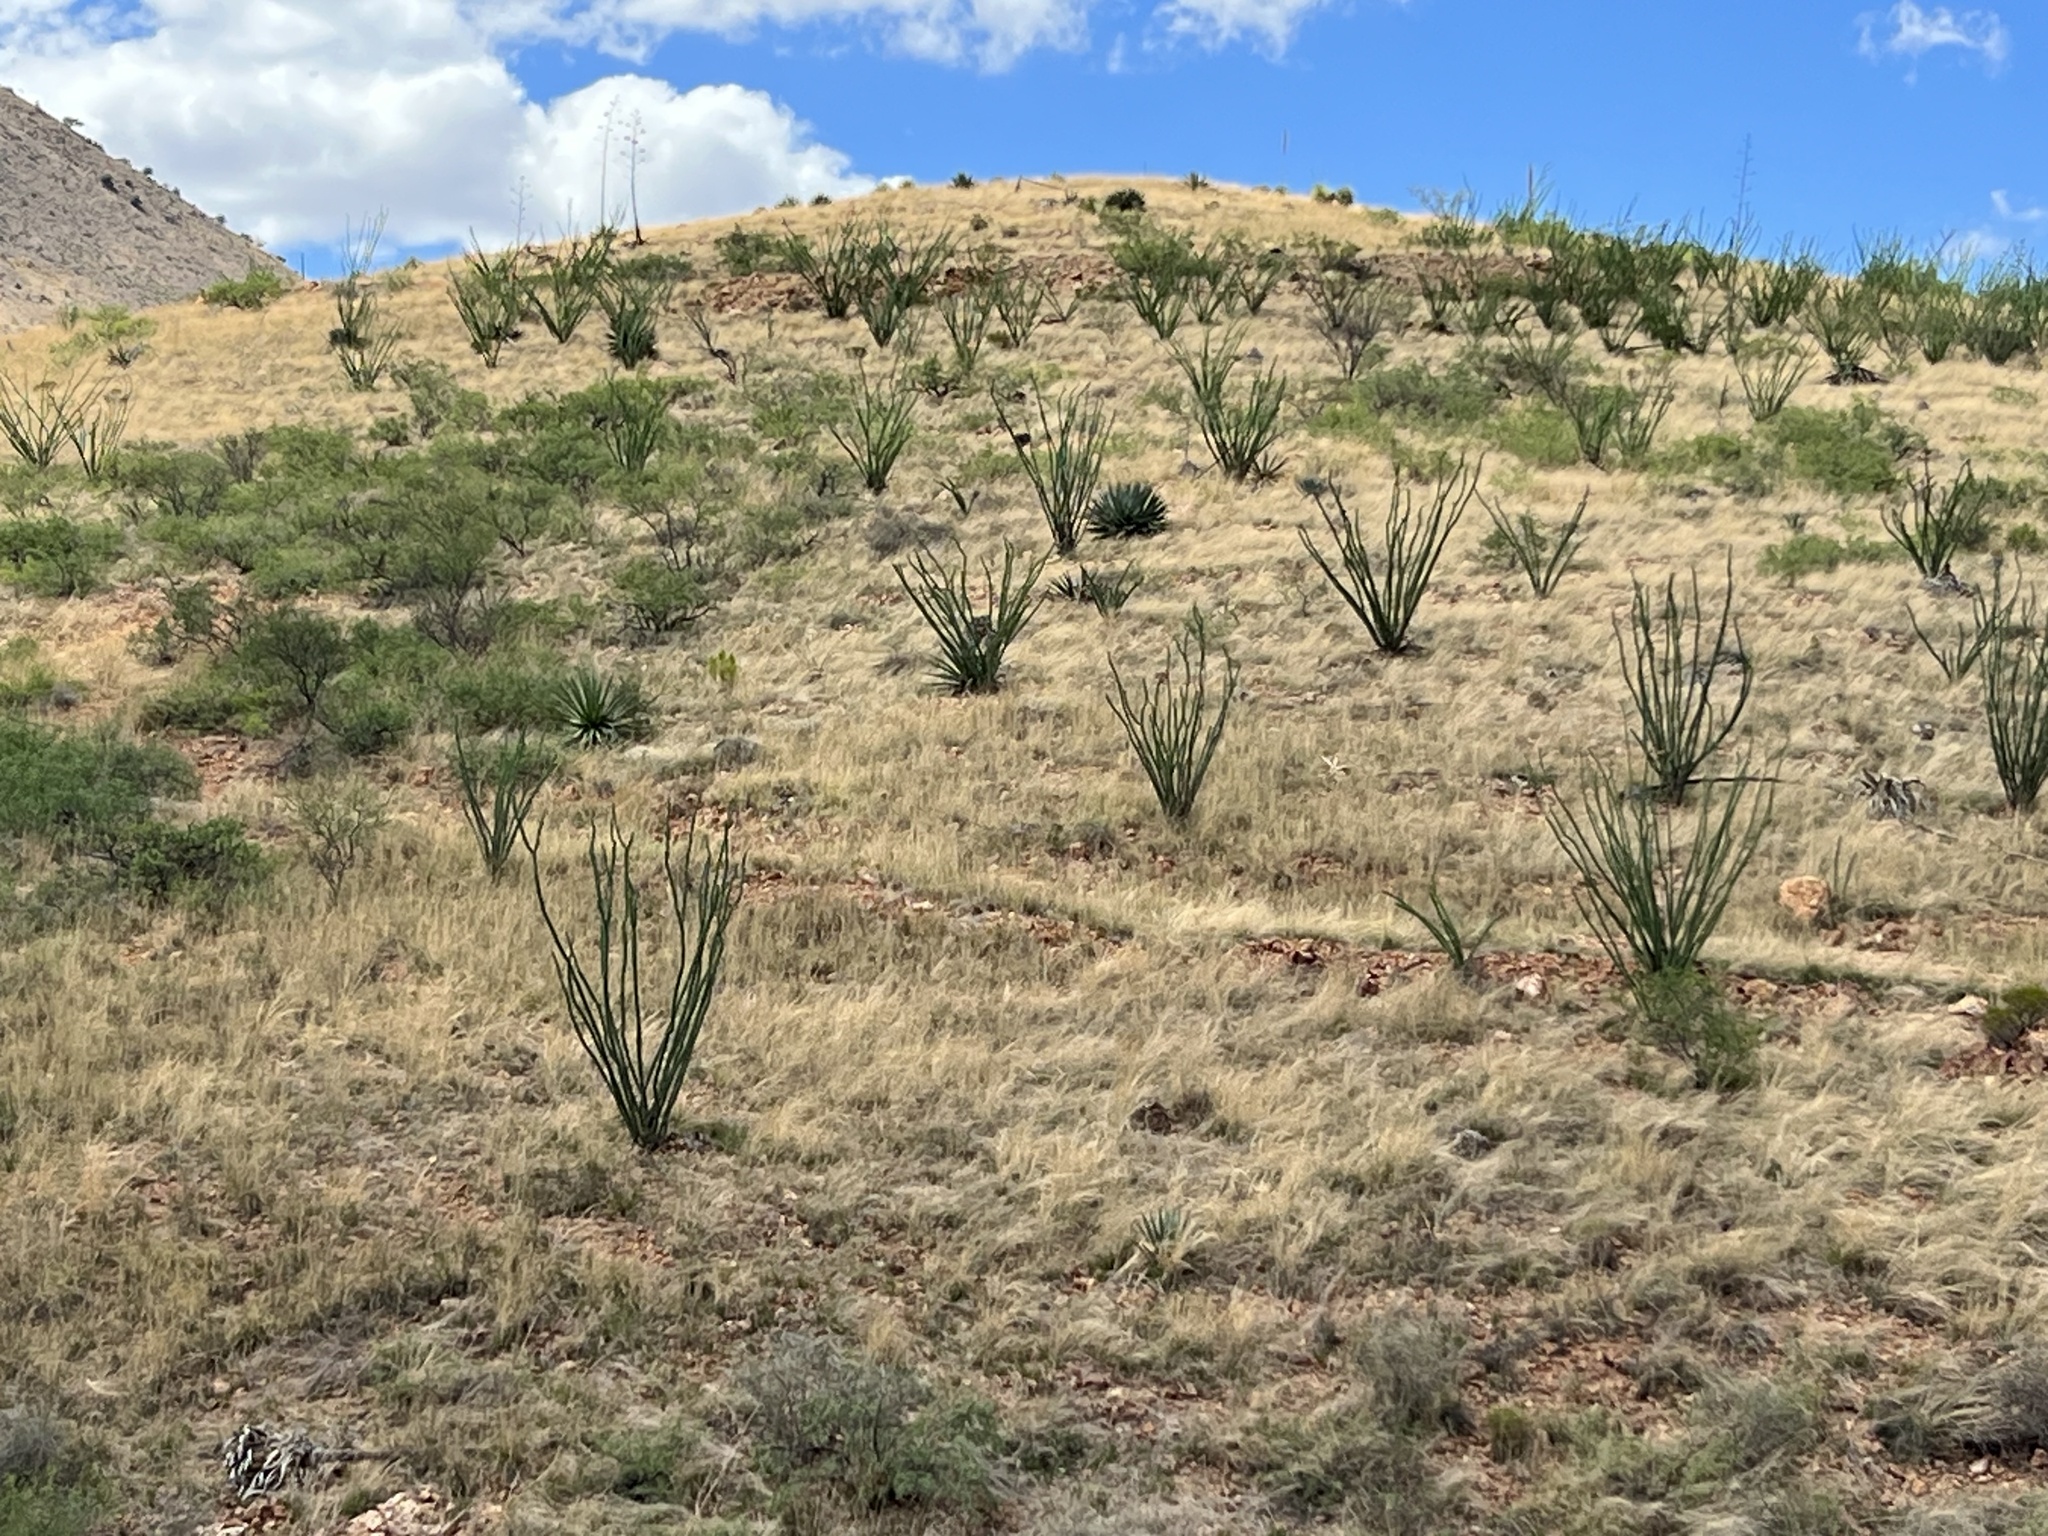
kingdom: Plantae
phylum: Tracheophyta
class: Magnoliopsida
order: Ericales
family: Fouquieriaceae
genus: Fouquieria
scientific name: Fouquieria splendens
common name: Vine-cactus
